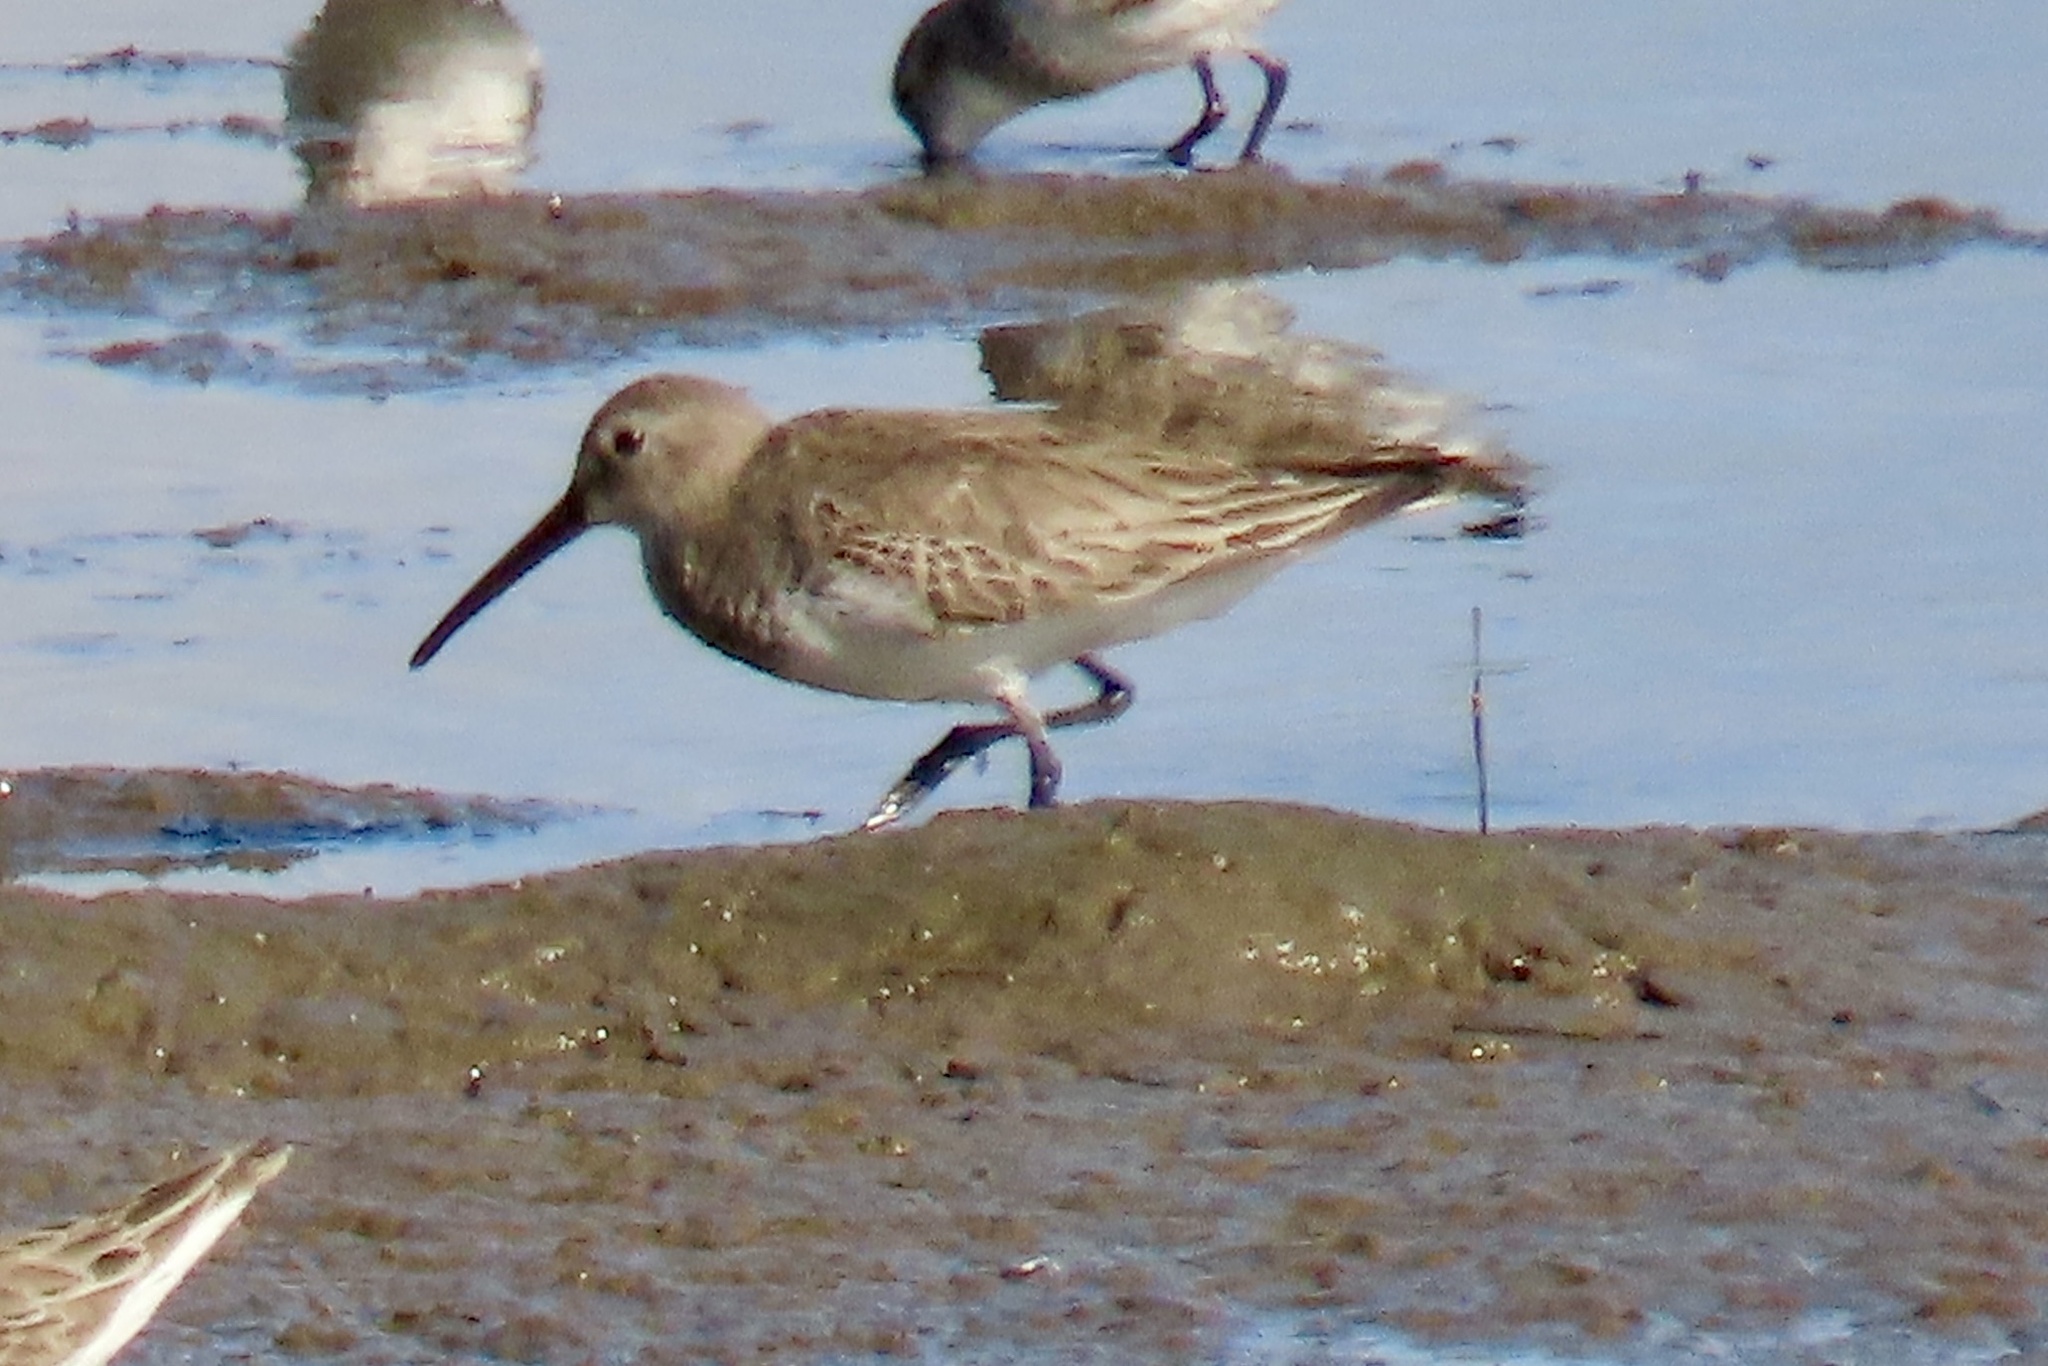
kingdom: Animalia
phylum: Chordata
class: Aves
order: Charadriiformes
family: Scolopacidae
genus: Calidris
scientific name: Calidris alpina
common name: Dunlin
